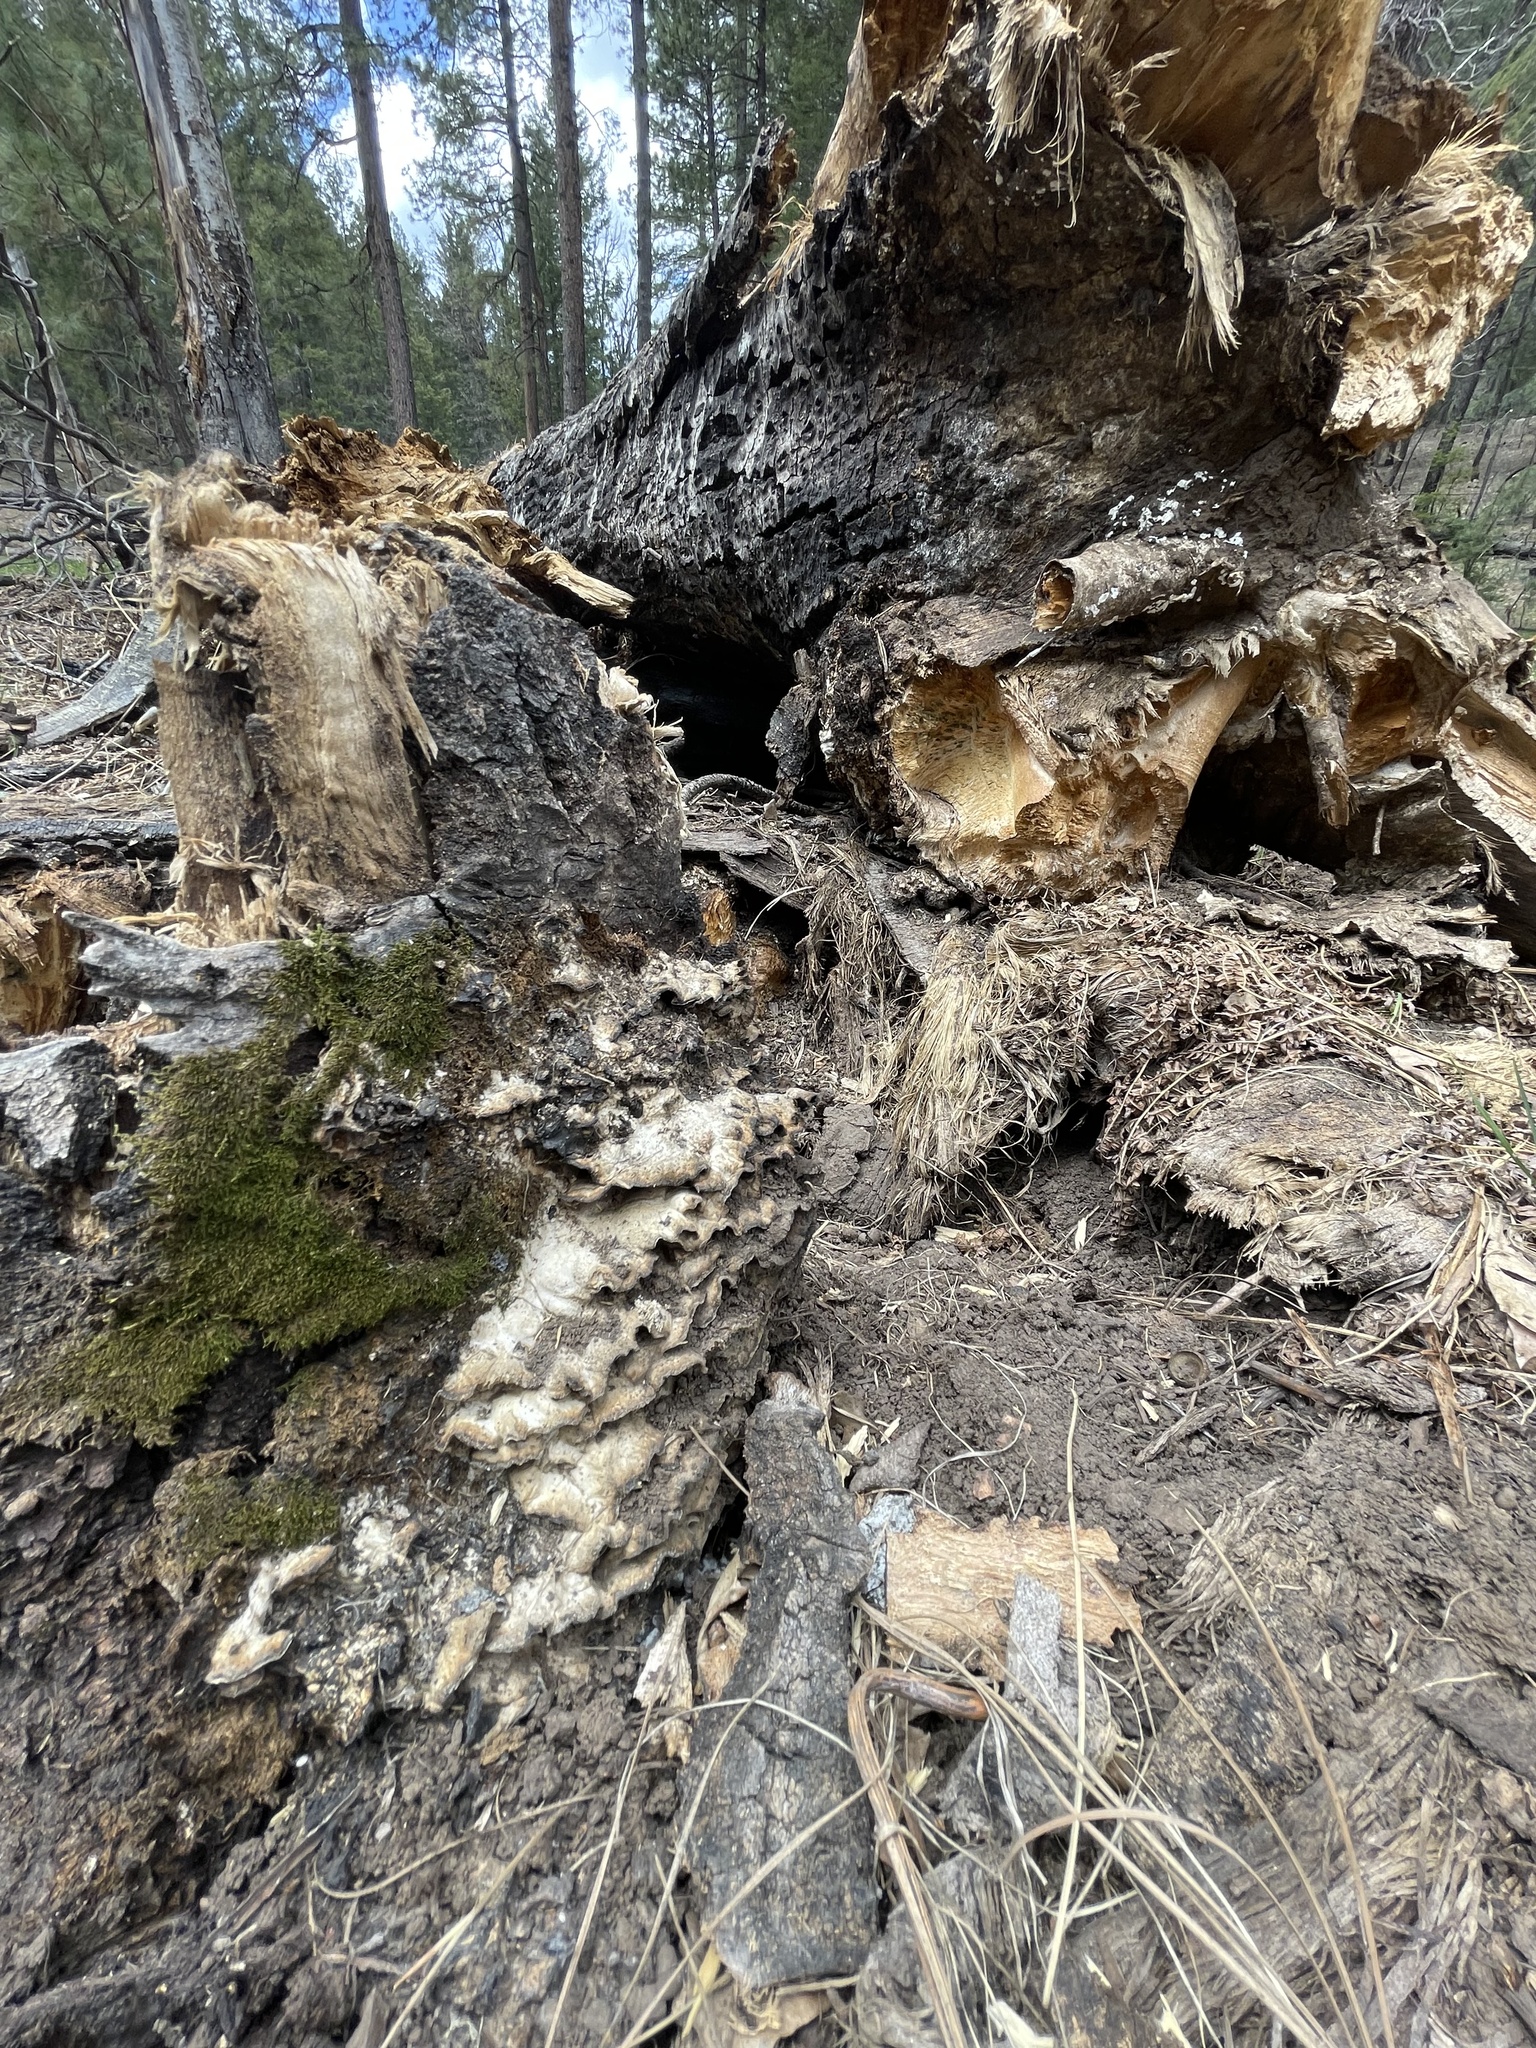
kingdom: Fungi
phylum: Basidiomycota
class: Agaricomycetes
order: Polyporales
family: Phanerochaetaceae
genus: Bjerkandera
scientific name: Bjerkandera adusta
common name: Smoky bracket
